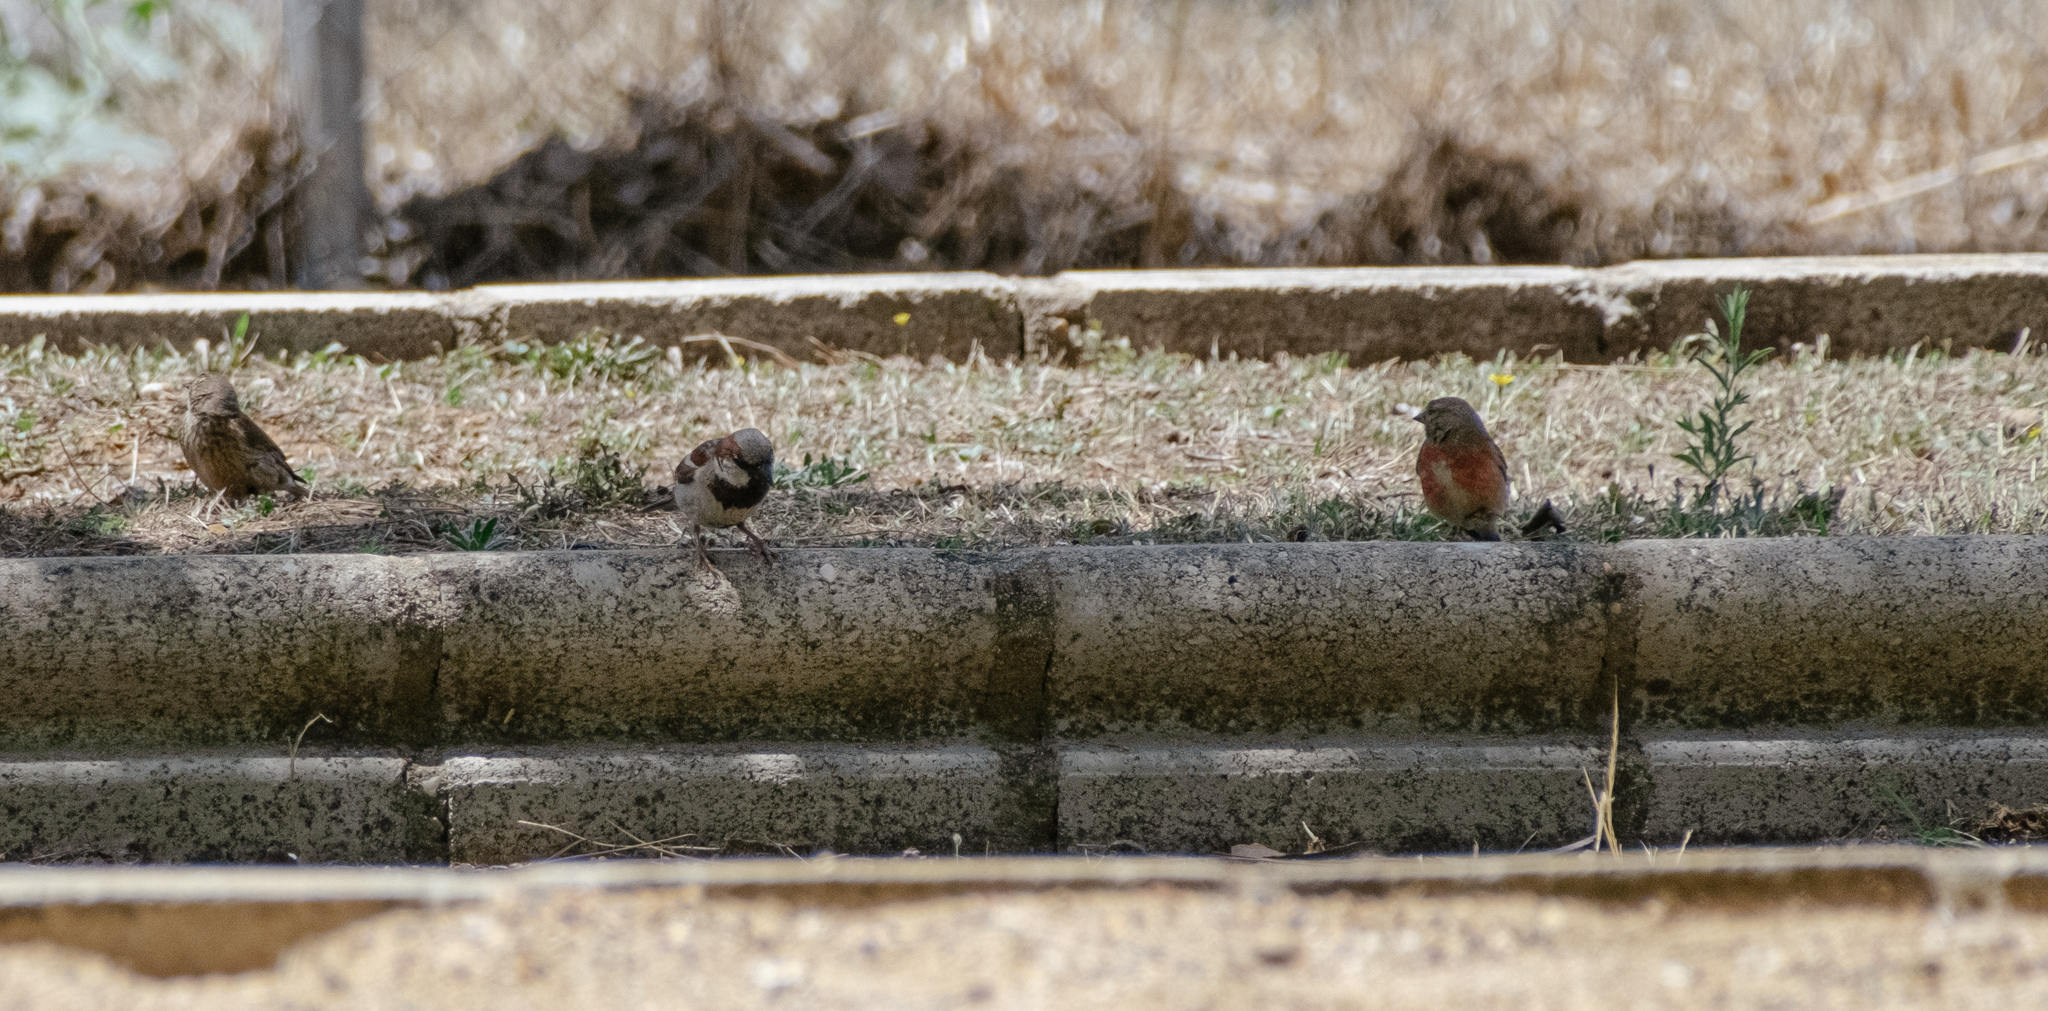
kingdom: Animalia
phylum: Chordata
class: Aves
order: Passeriformes
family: Passeridae
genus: Passer
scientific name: Passer domesticus
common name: House sparrow
